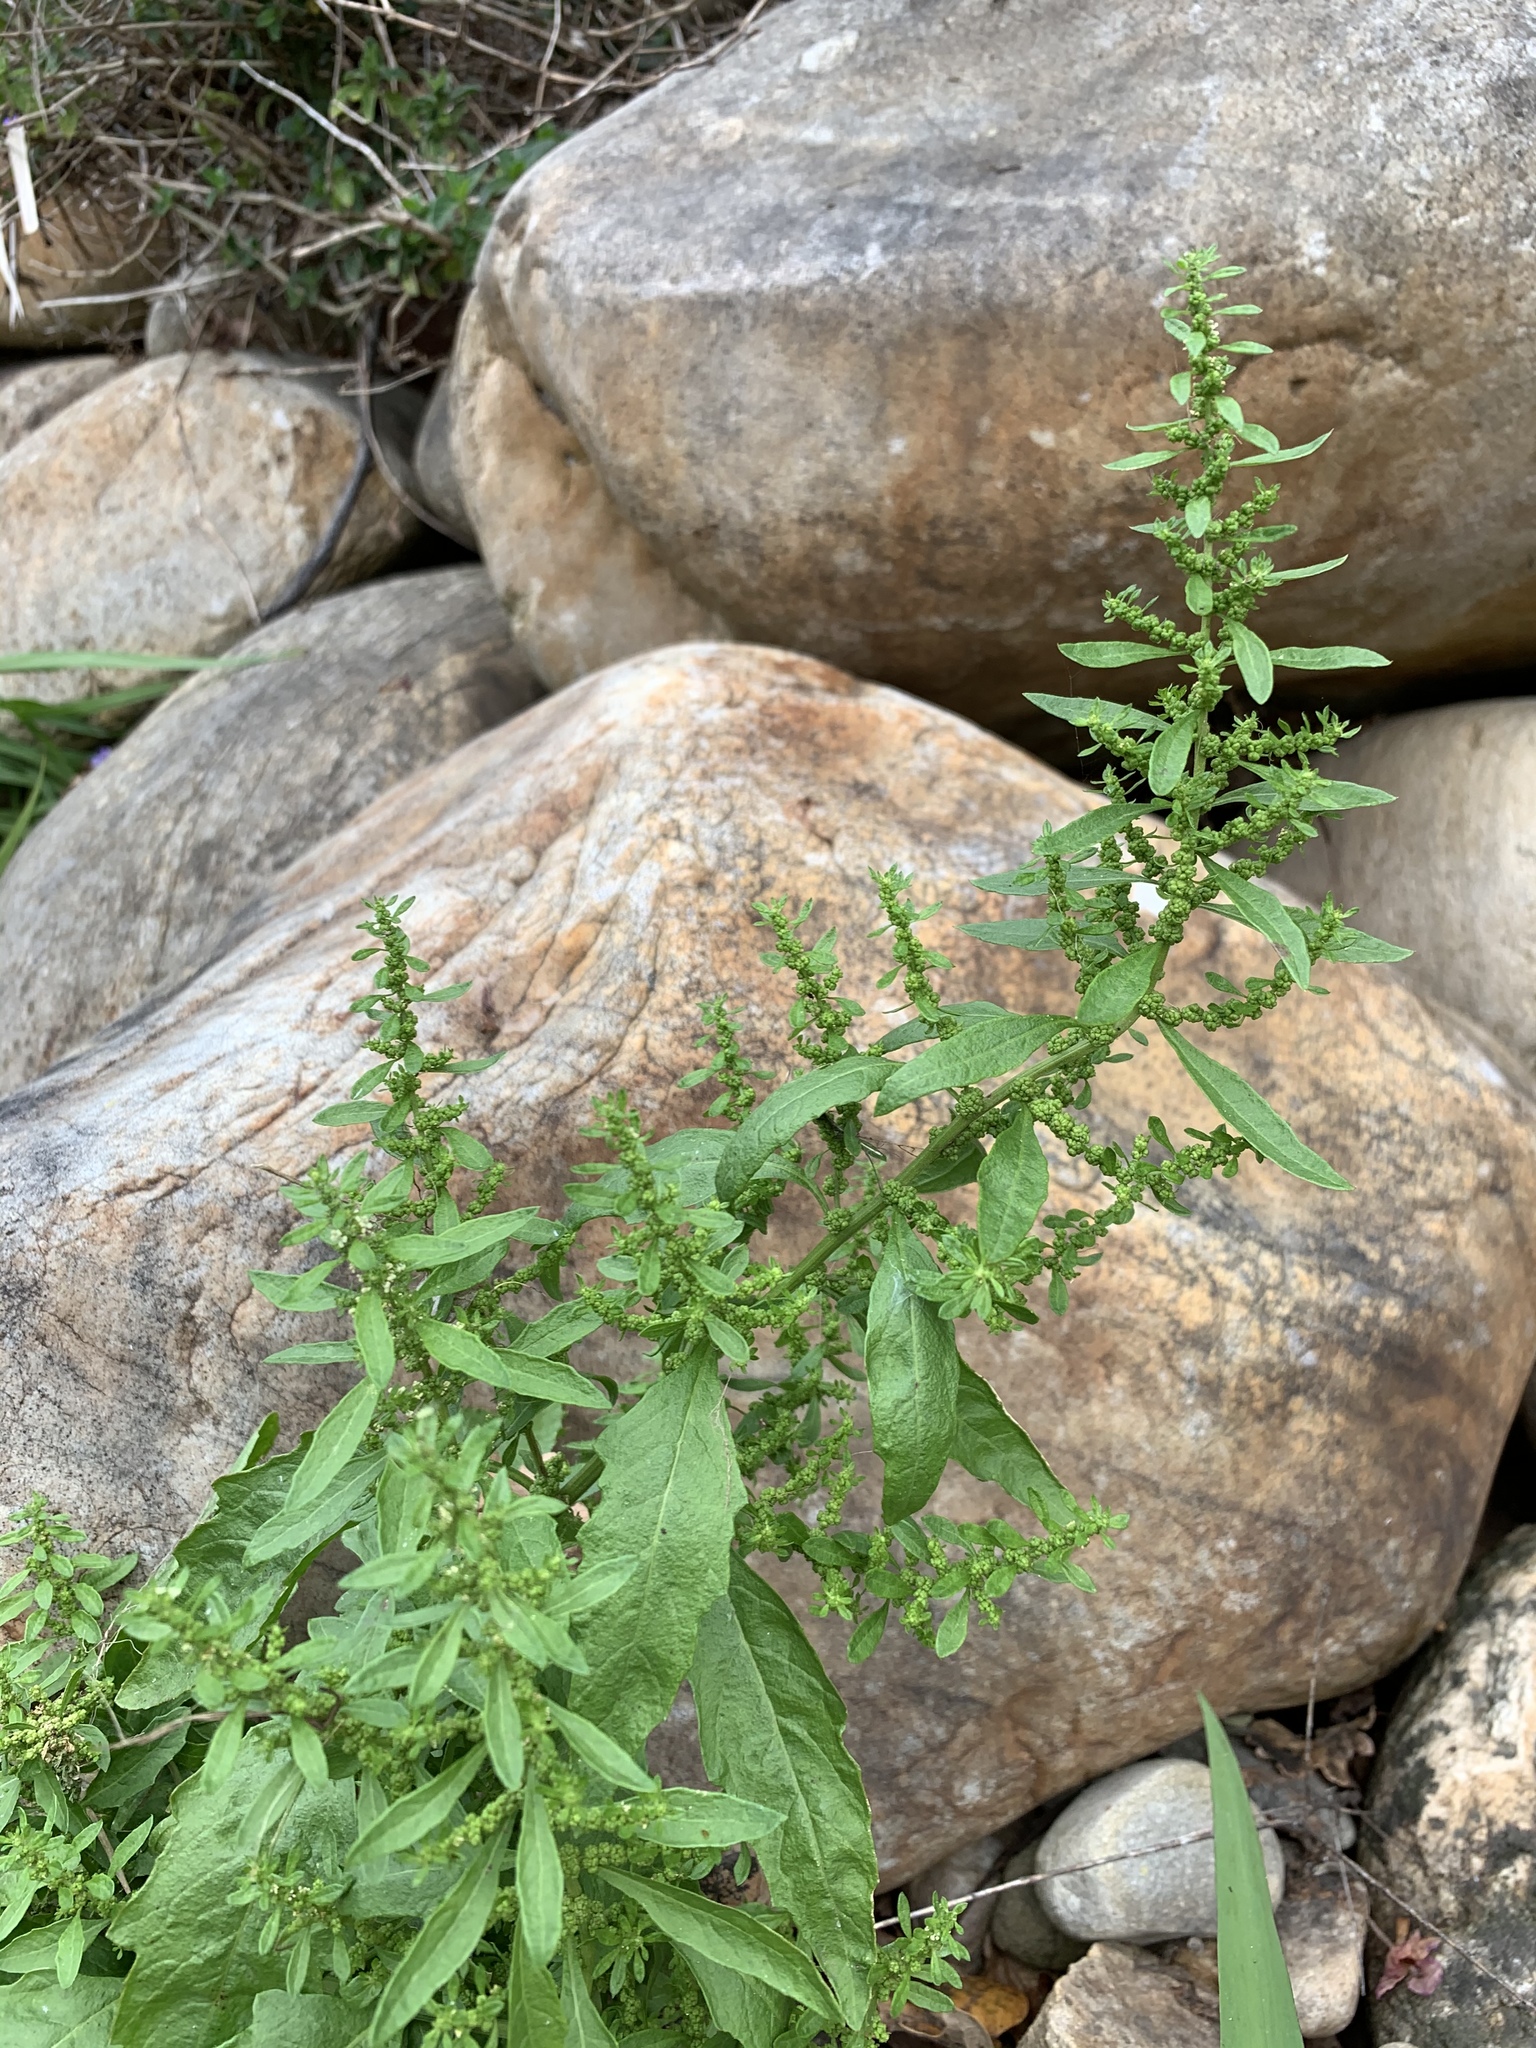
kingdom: Plantae
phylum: Tracheophyta
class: Magnoliopsida
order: Caryophyllales
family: Amaranthaceae
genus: Dysphania
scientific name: Dysphania ambrosioides
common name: Wormseed
